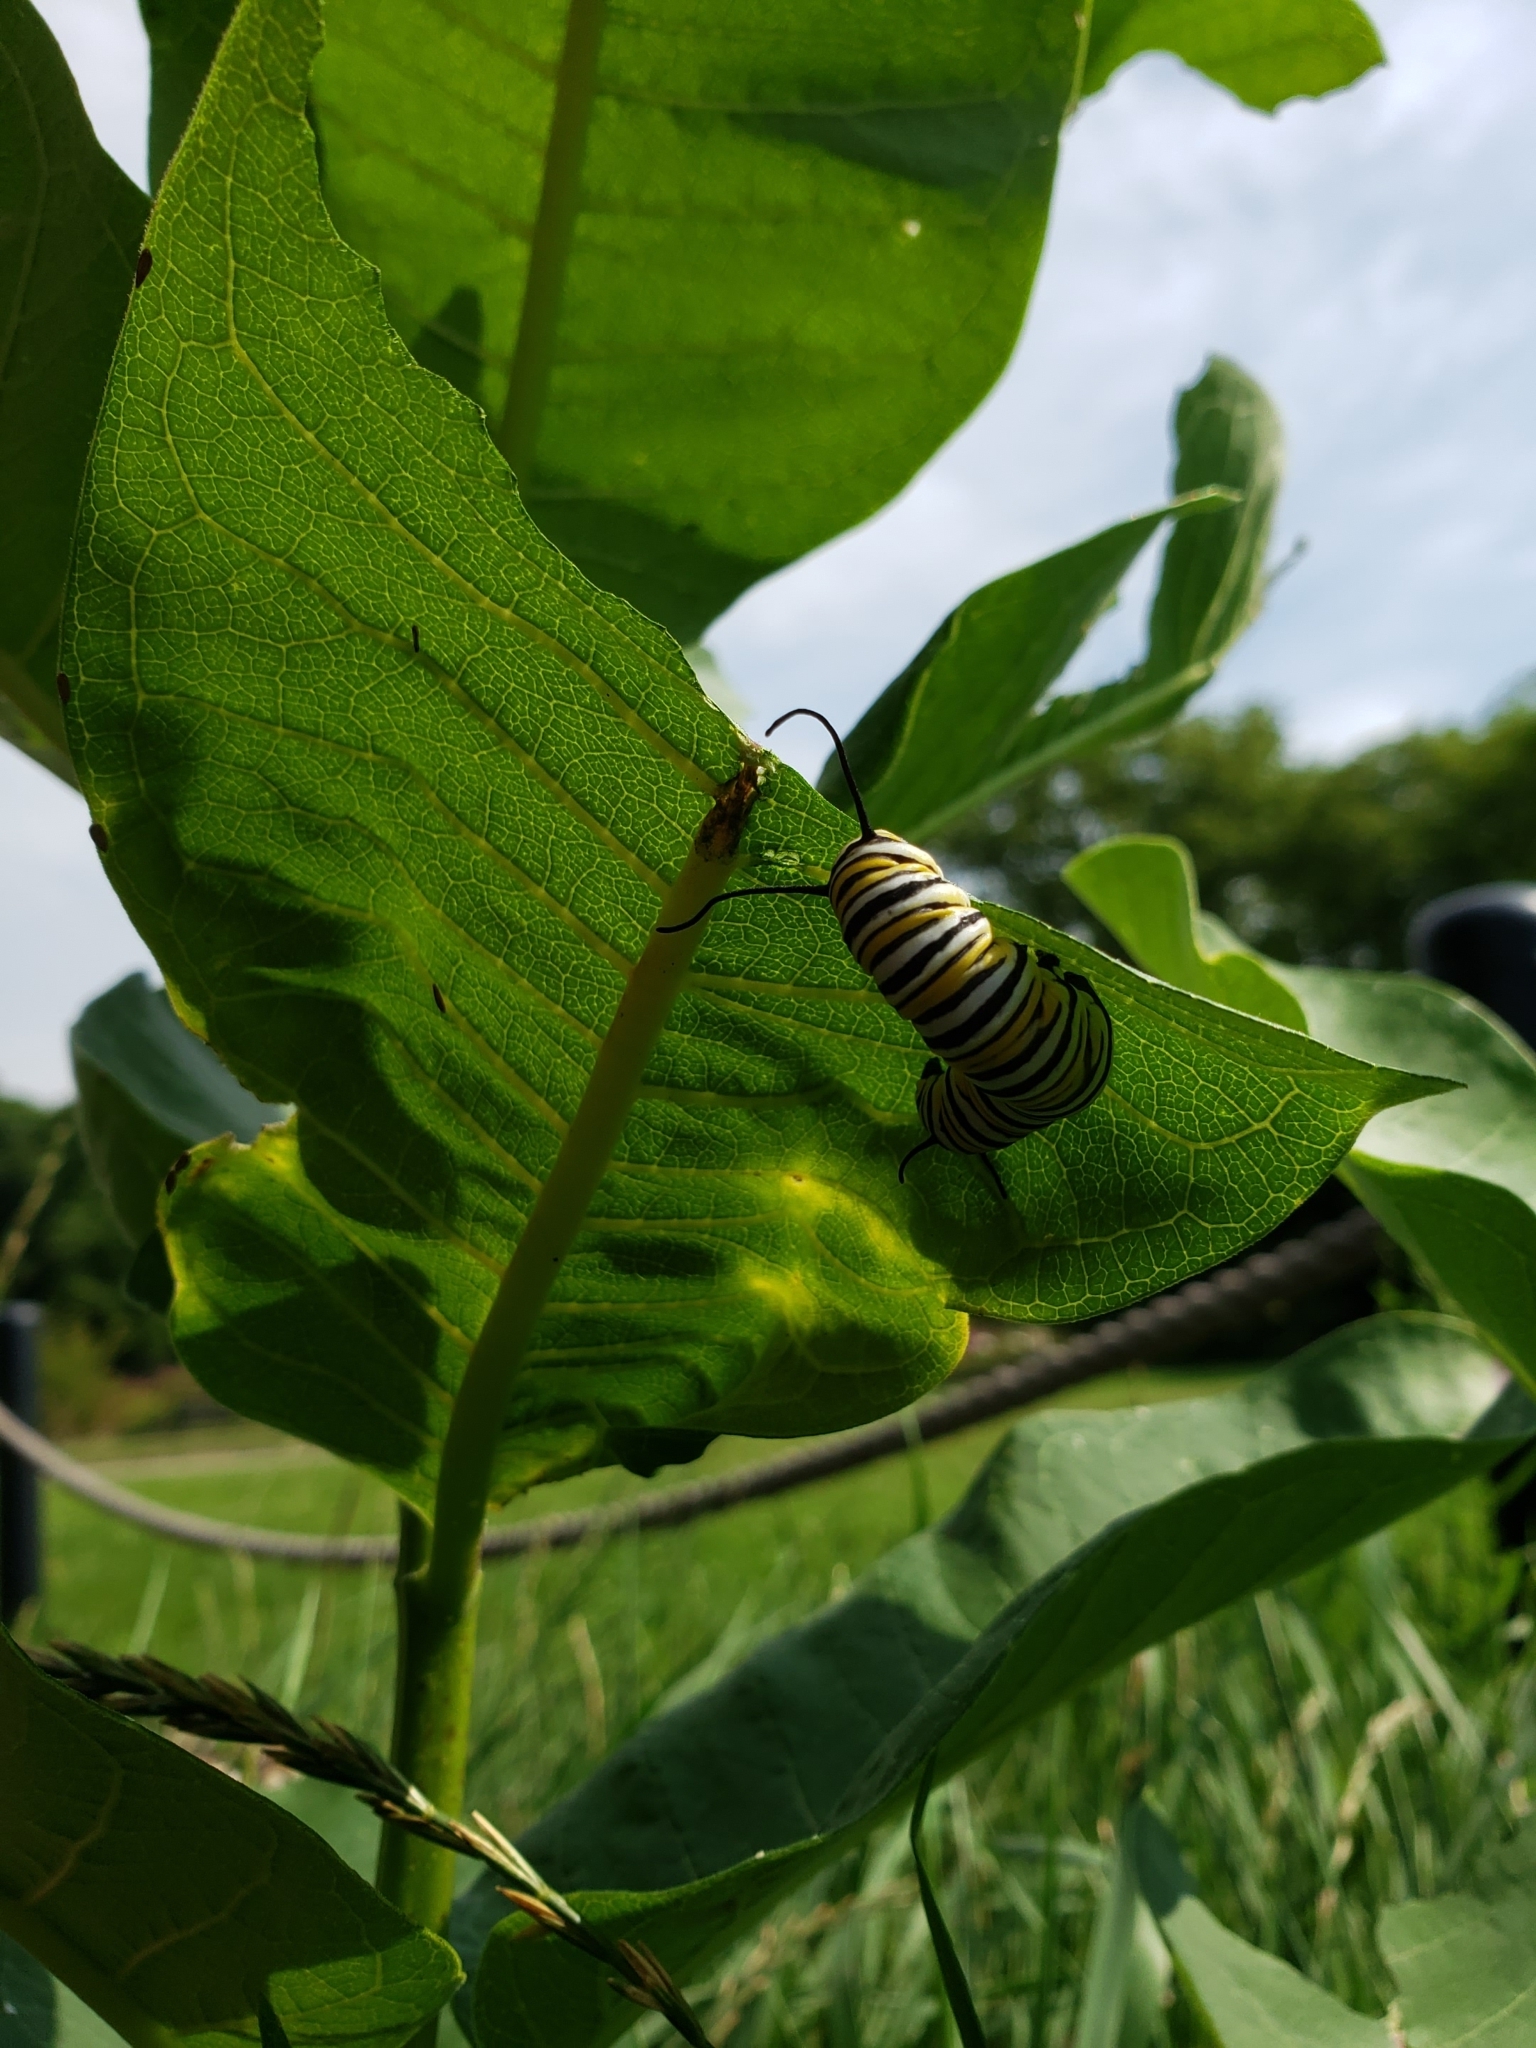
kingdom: Animalia
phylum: Arthropoda
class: Insecta
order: Lepidoptera
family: Nymphalidae
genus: Danaus
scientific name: Danaus plexippus
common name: Monarch
